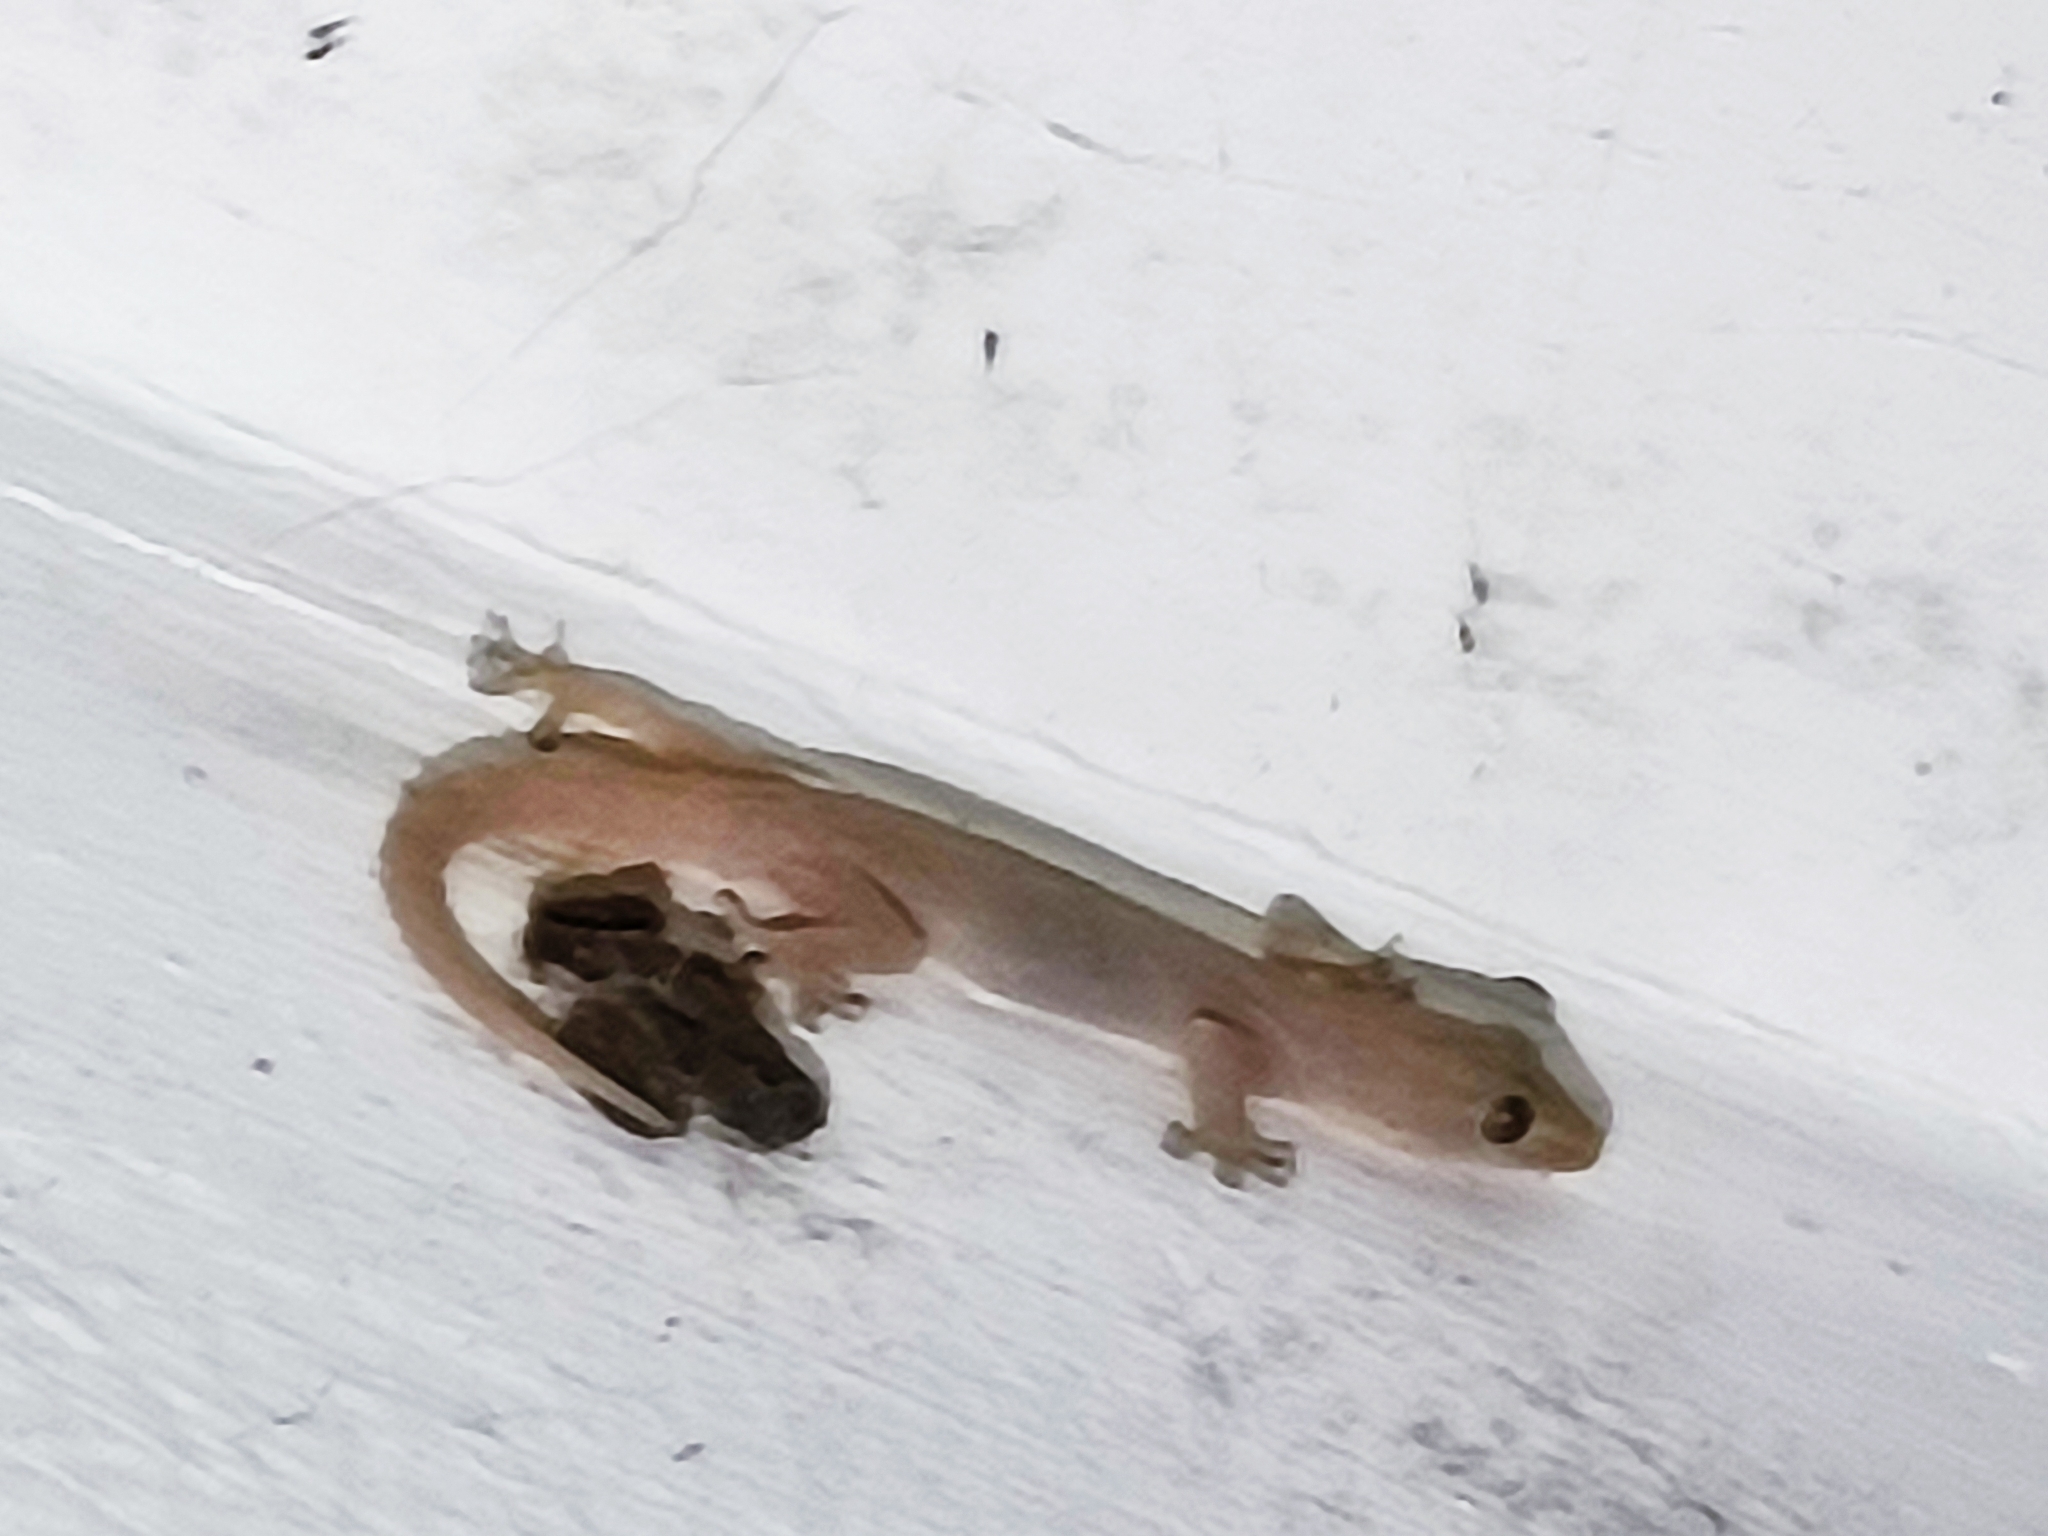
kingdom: Animalia
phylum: Chordata
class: Squamata
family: Gekkonidae
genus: Gehyra
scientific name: Gehyra mutilata
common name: Stump-toed gecko
